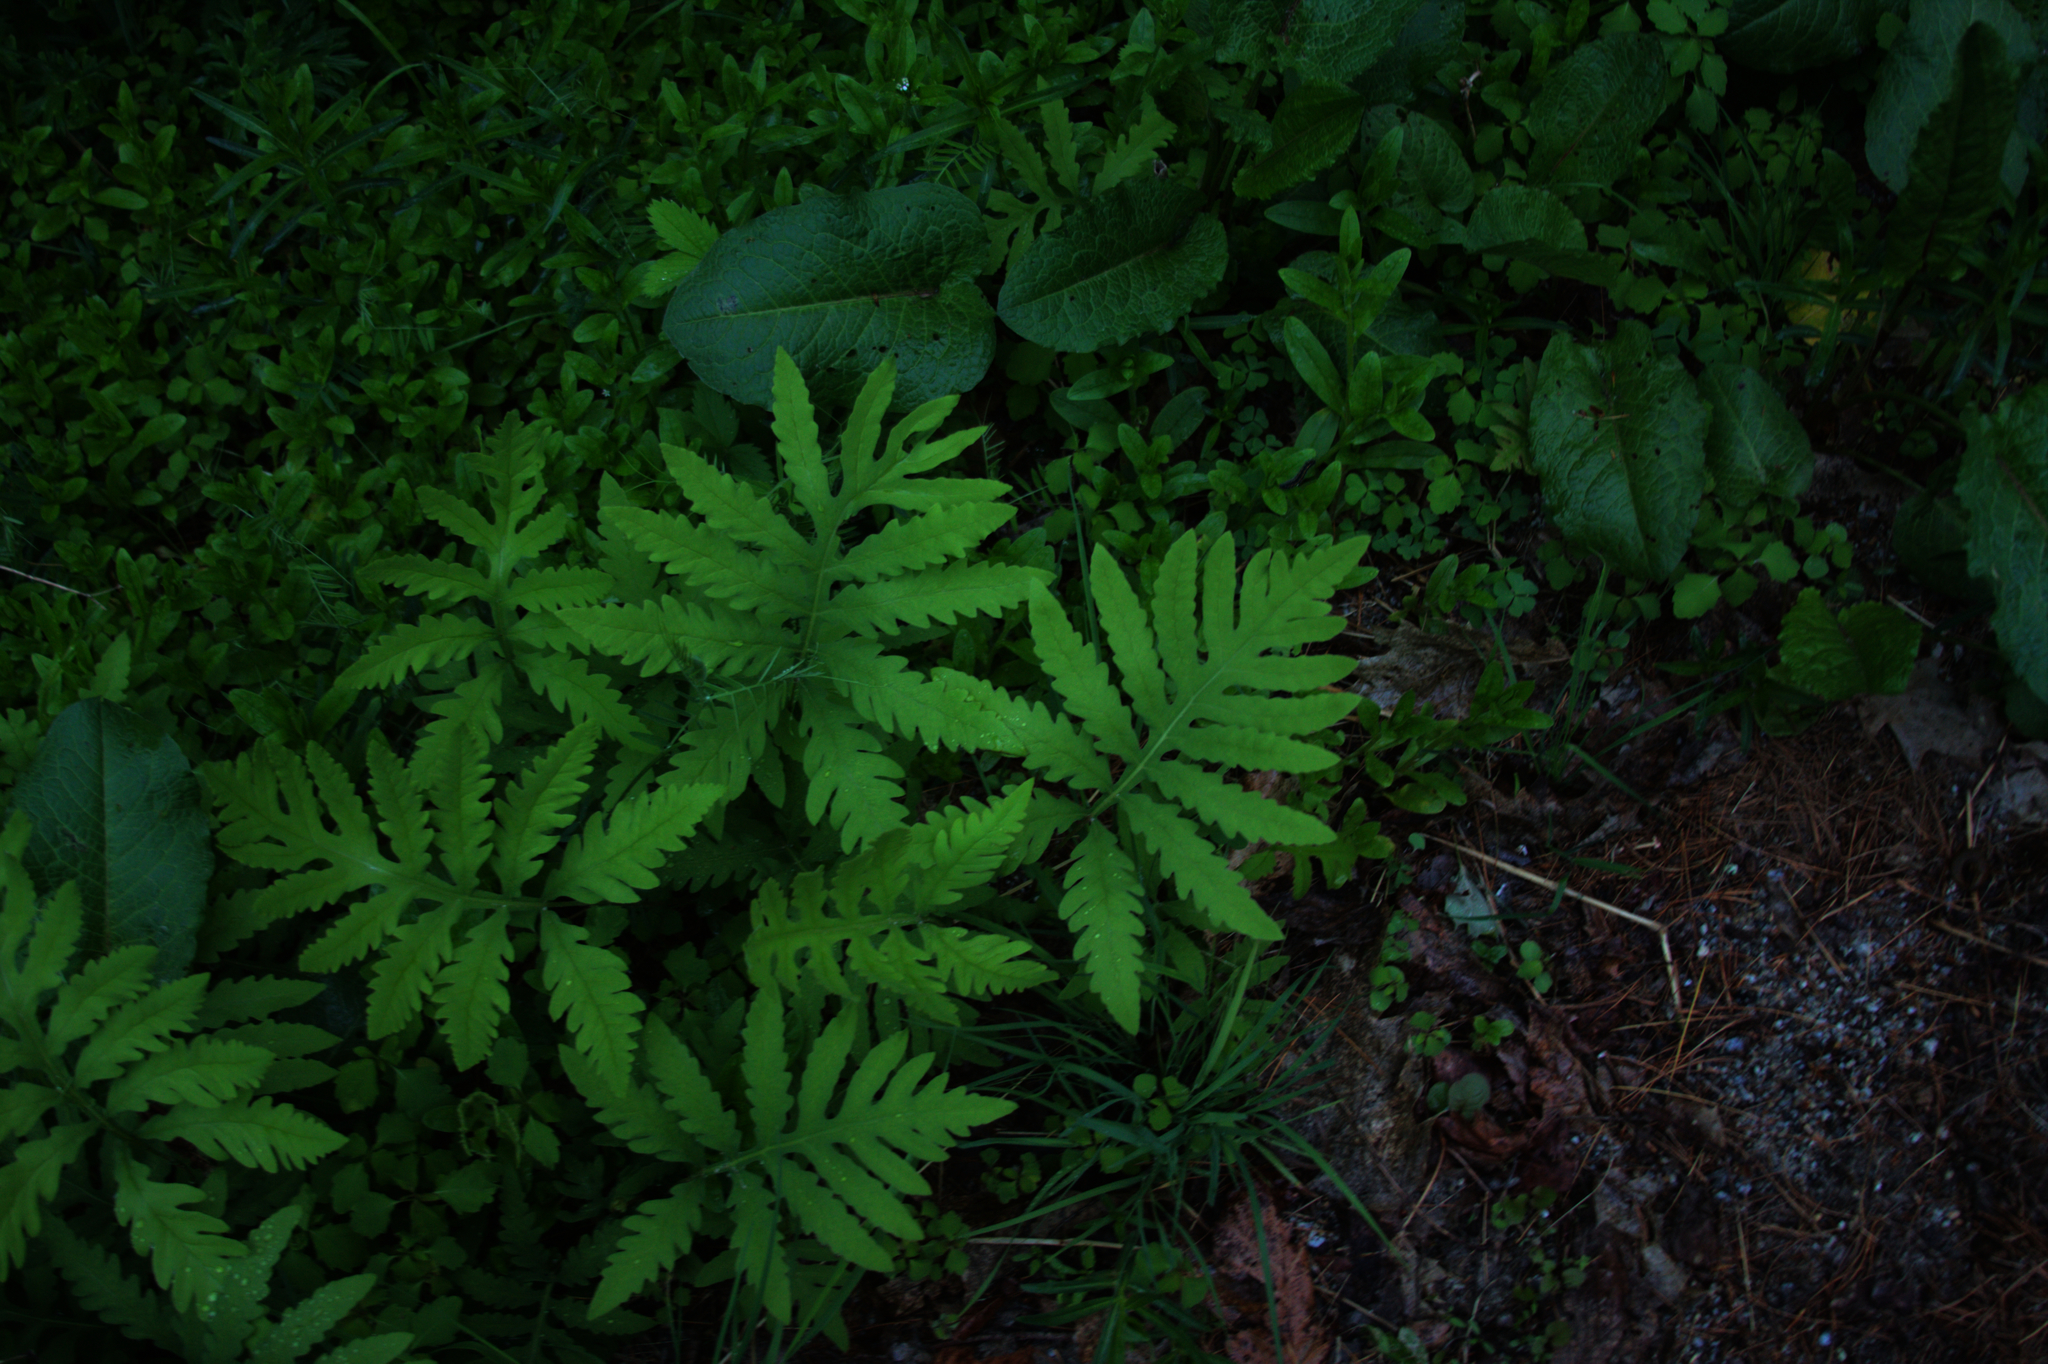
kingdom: Plantae
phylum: Tracheophyta
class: Polypodiopsida
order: Polypodiales
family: Onocleaceae
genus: Onoclea
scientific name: Onoclea sensibilis
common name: Sensitive fern
